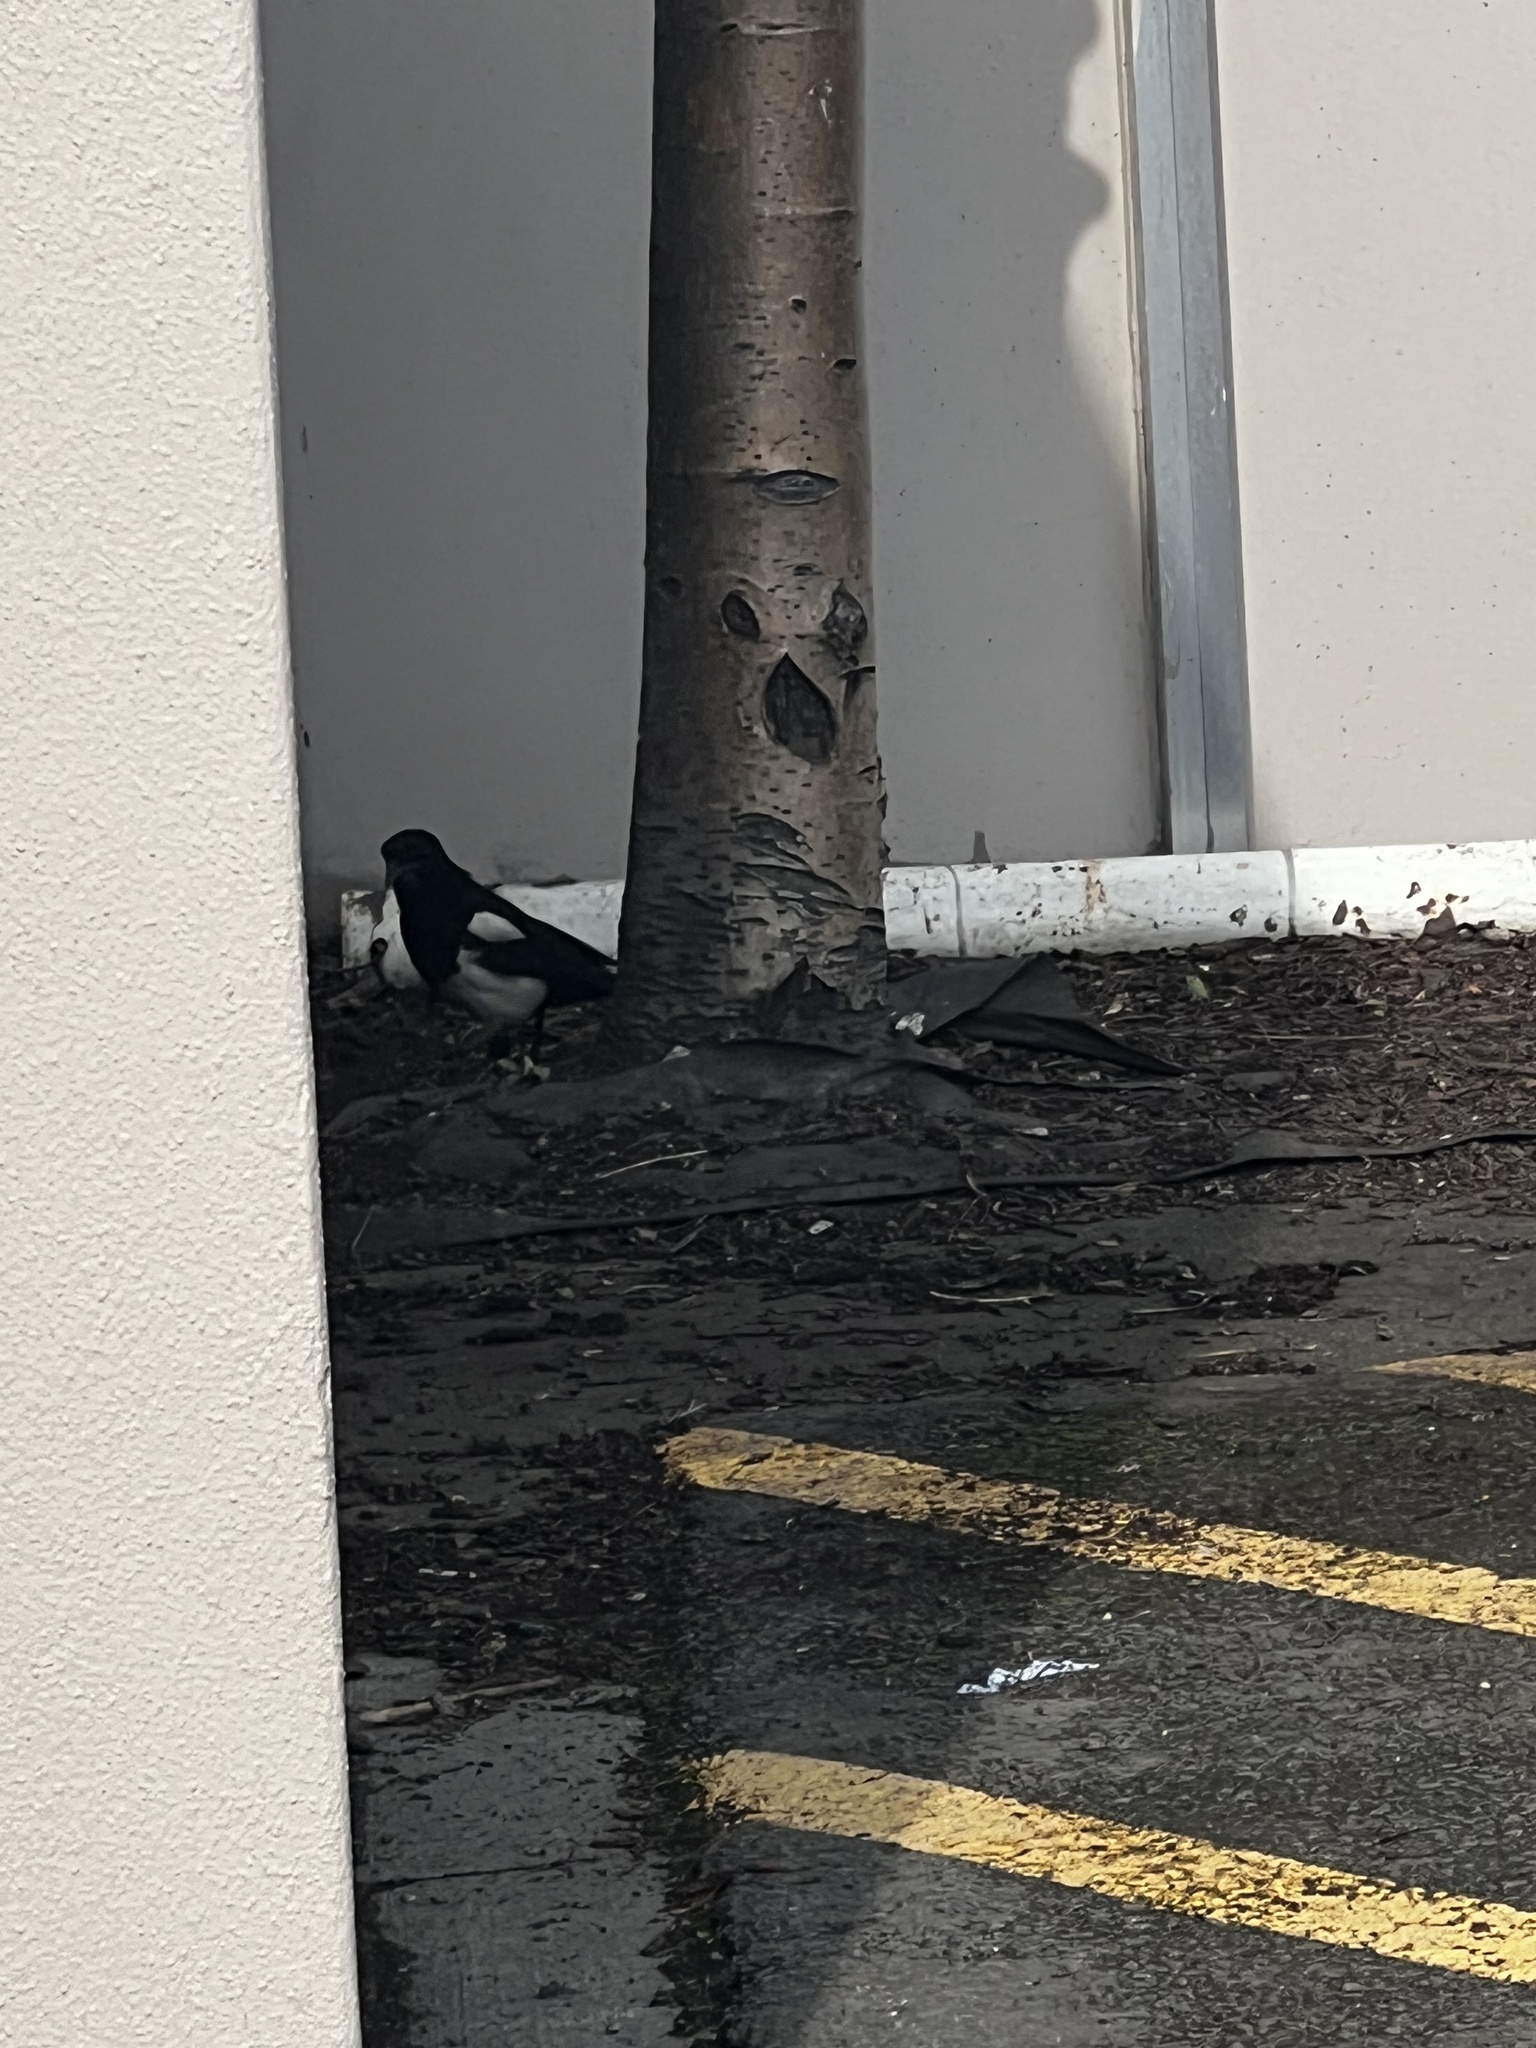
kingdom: Animalia
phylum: Chordata
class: Aves
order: Passeriformes
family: Corvidae
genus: Pica
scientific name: Pica hudsonia
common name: Black-billed magpie
